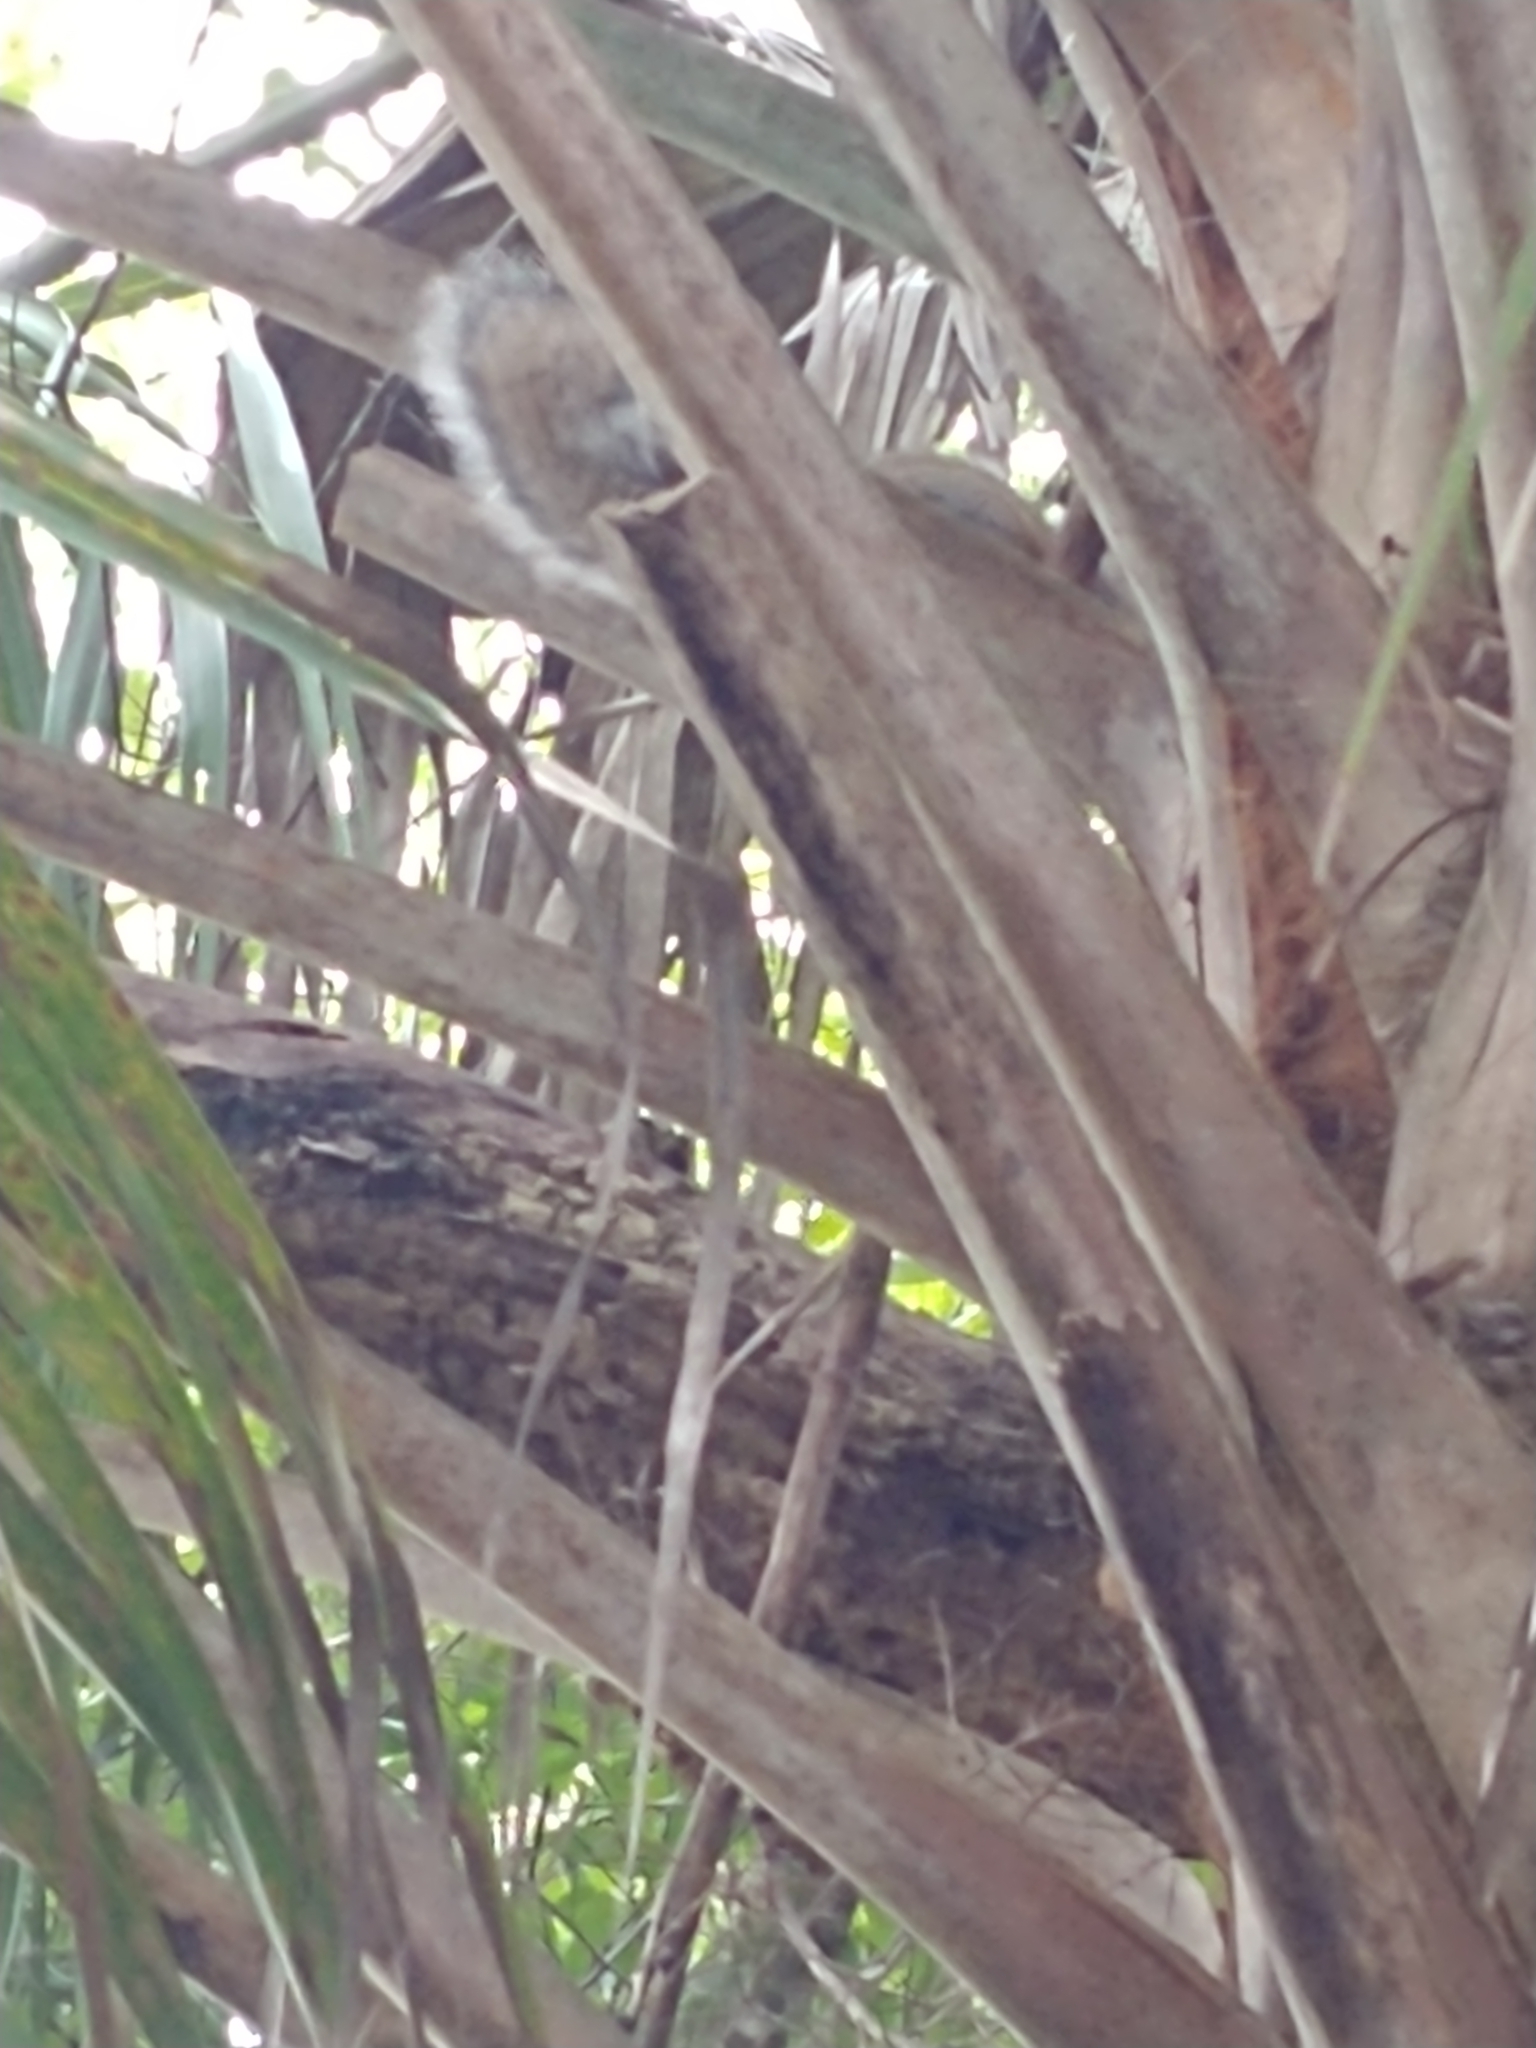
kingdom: Animalia
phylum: Chordata
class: Mammalia
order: Rodentia
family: Sciuridae
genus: Sciurus
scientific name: Sciurus carolinensis
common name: Eastern gray squirrel
